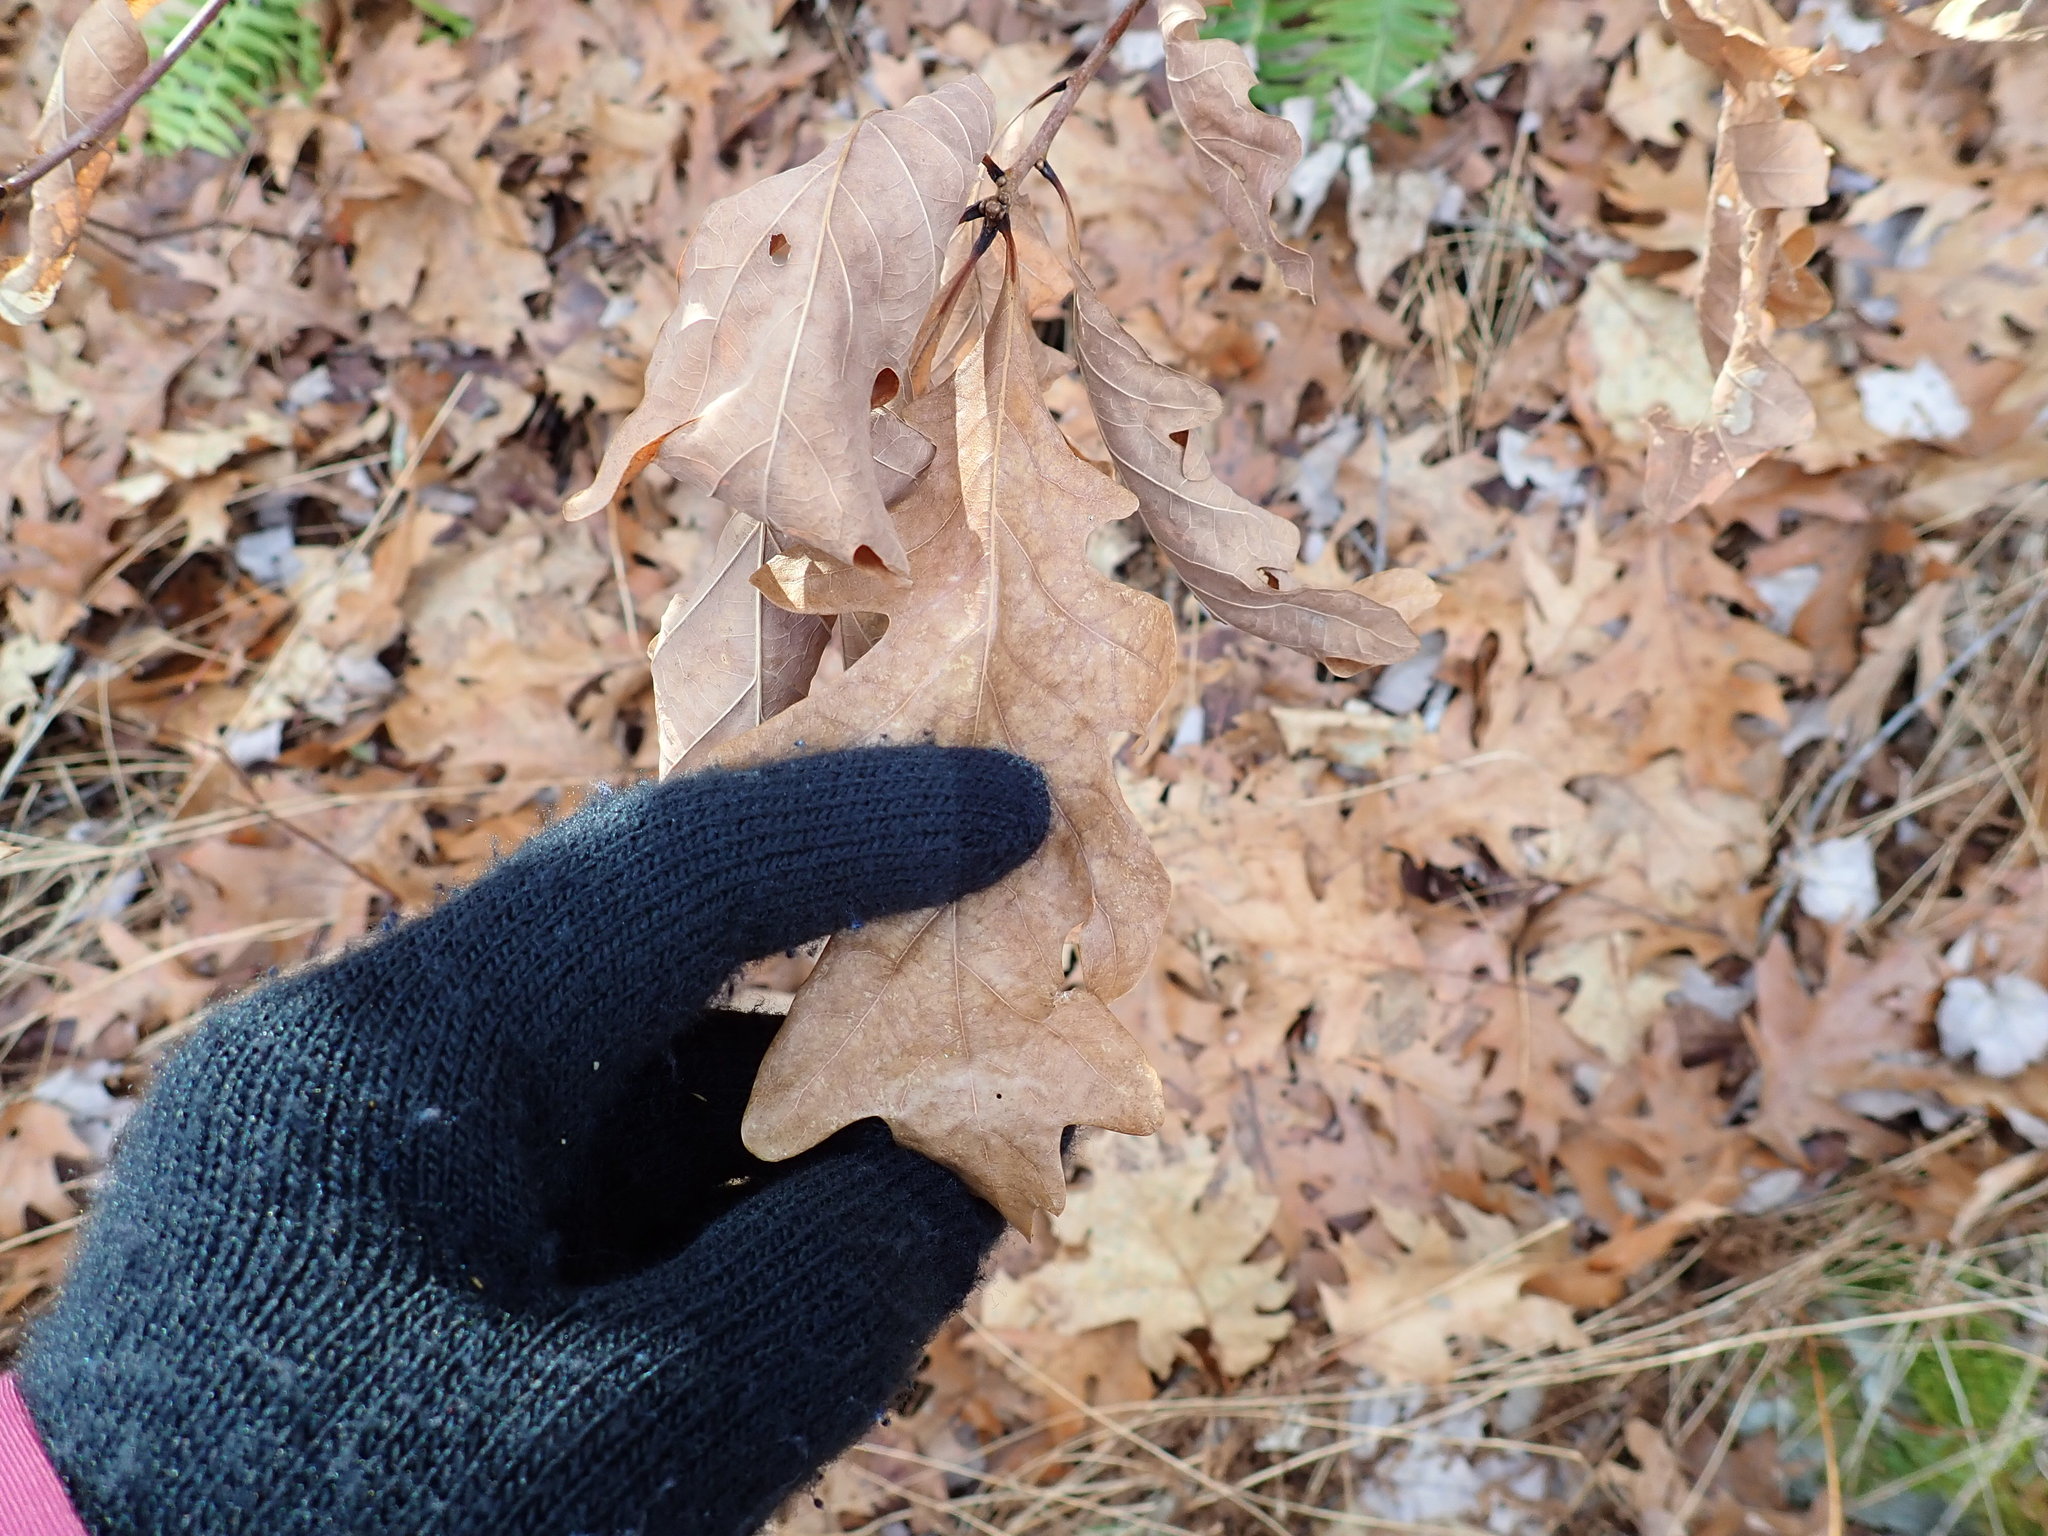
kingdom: Plantae
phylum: Tracheophyta
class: Magnoliopsida
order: Fagales
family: Fagaceae
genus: Quercus
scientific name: Quercus alba
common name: White oak
